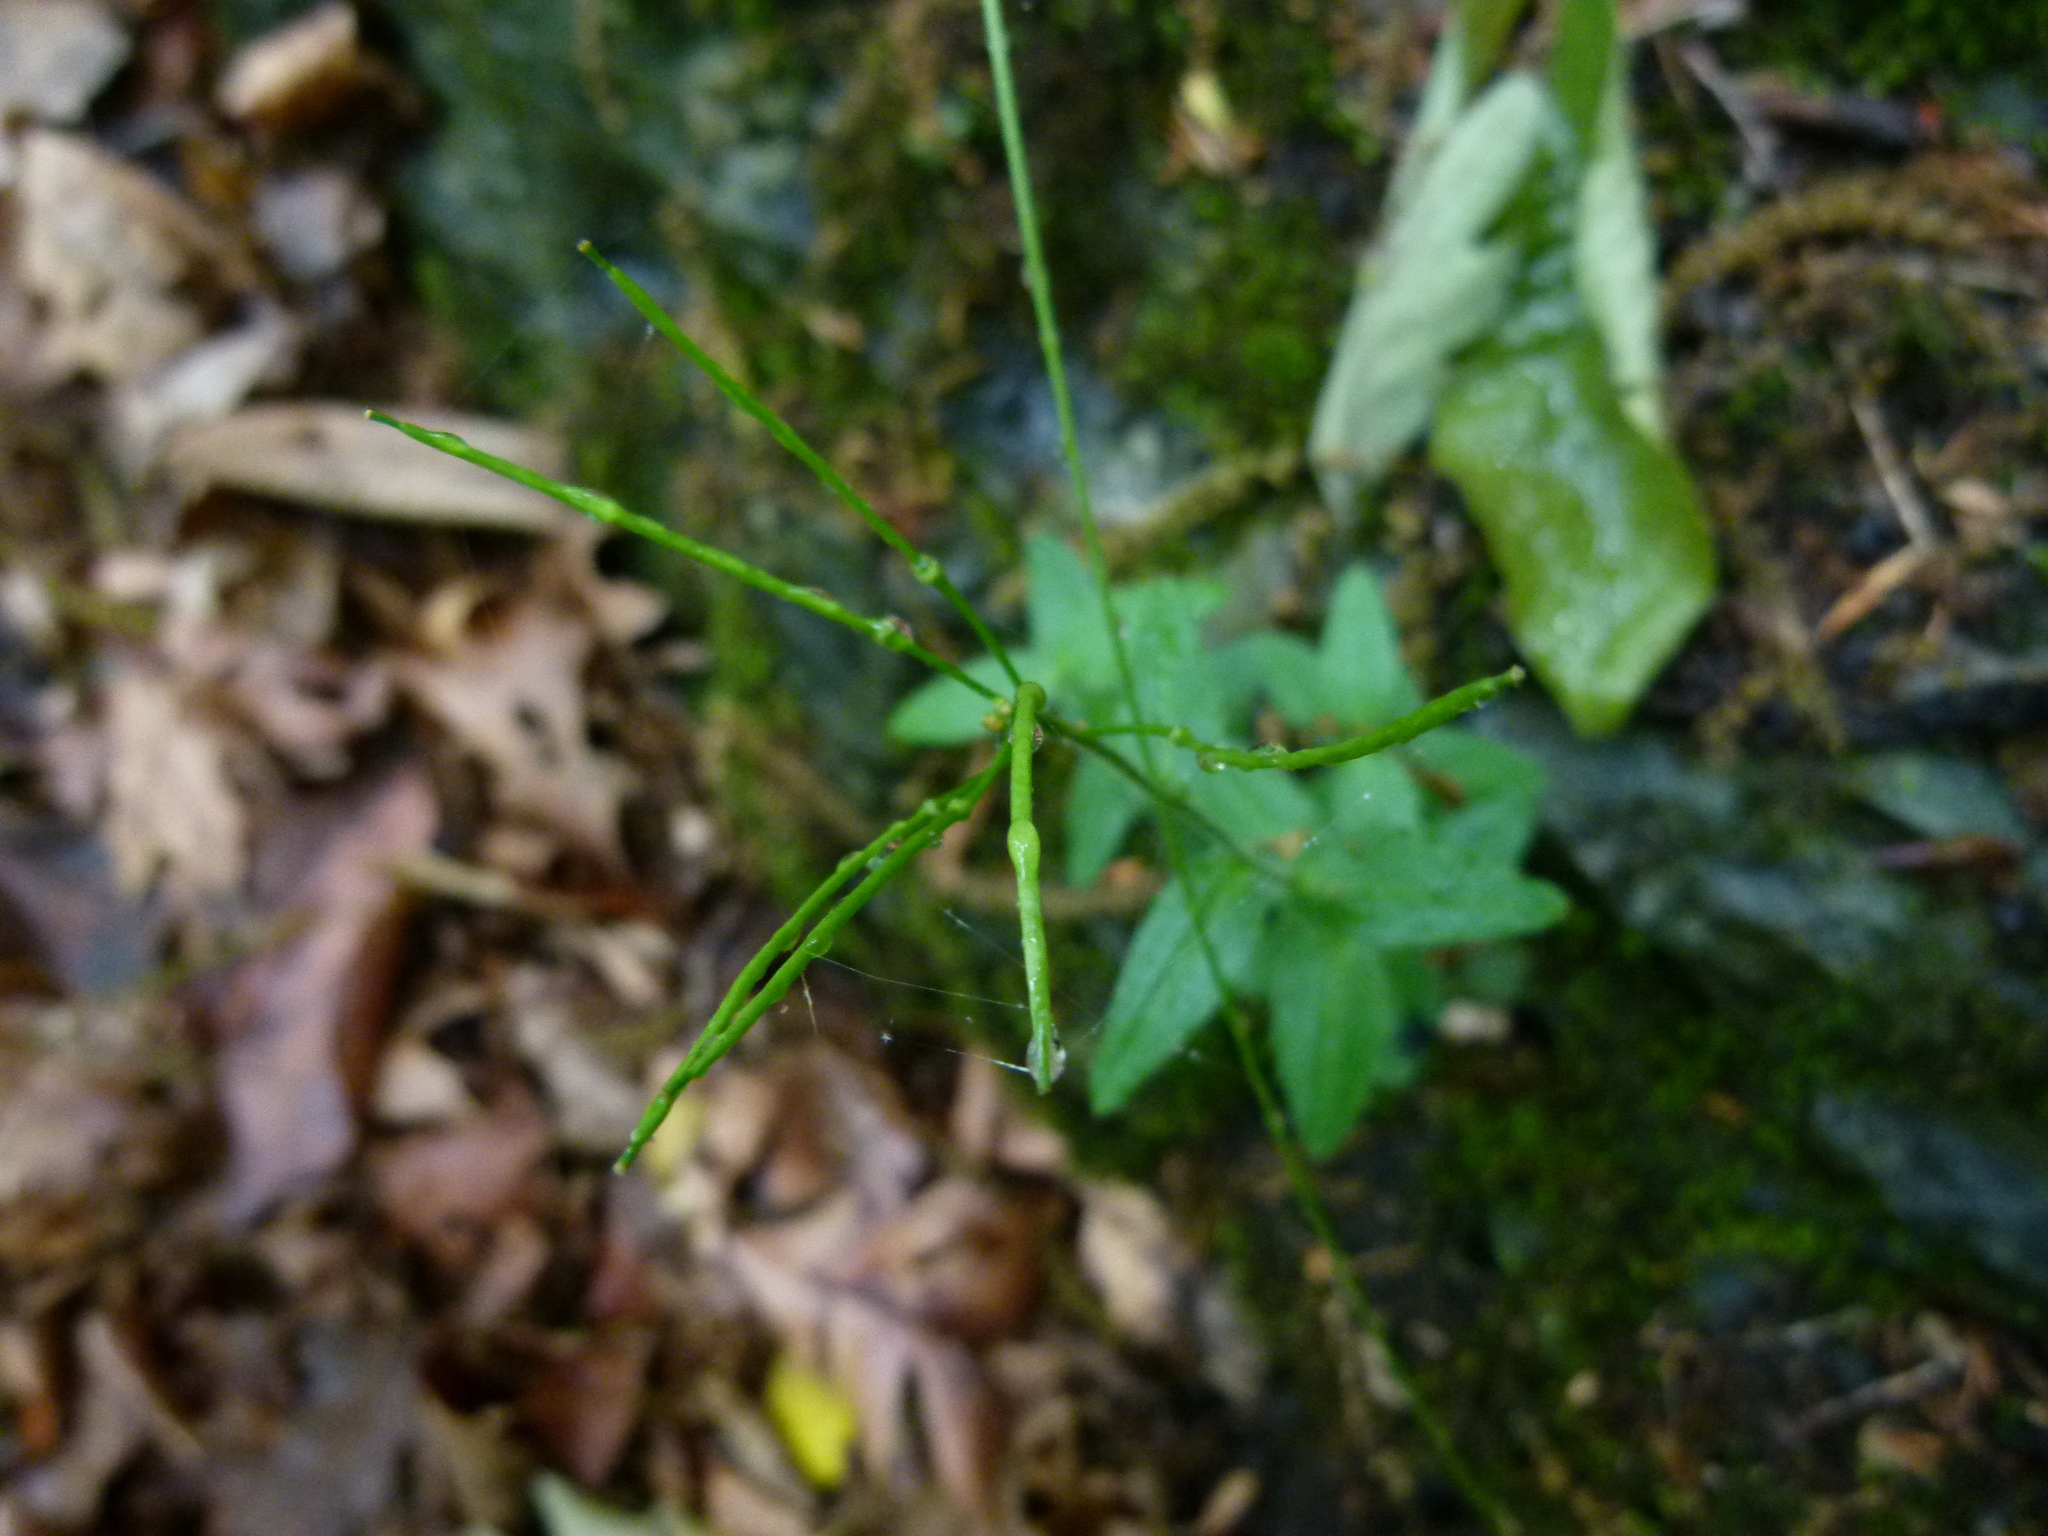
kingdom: Plantae
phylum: Tracheophyta
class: Magnoliopsida
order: Brassicales
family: Brassicaceae
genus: Arabis
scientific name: Arabis patens
